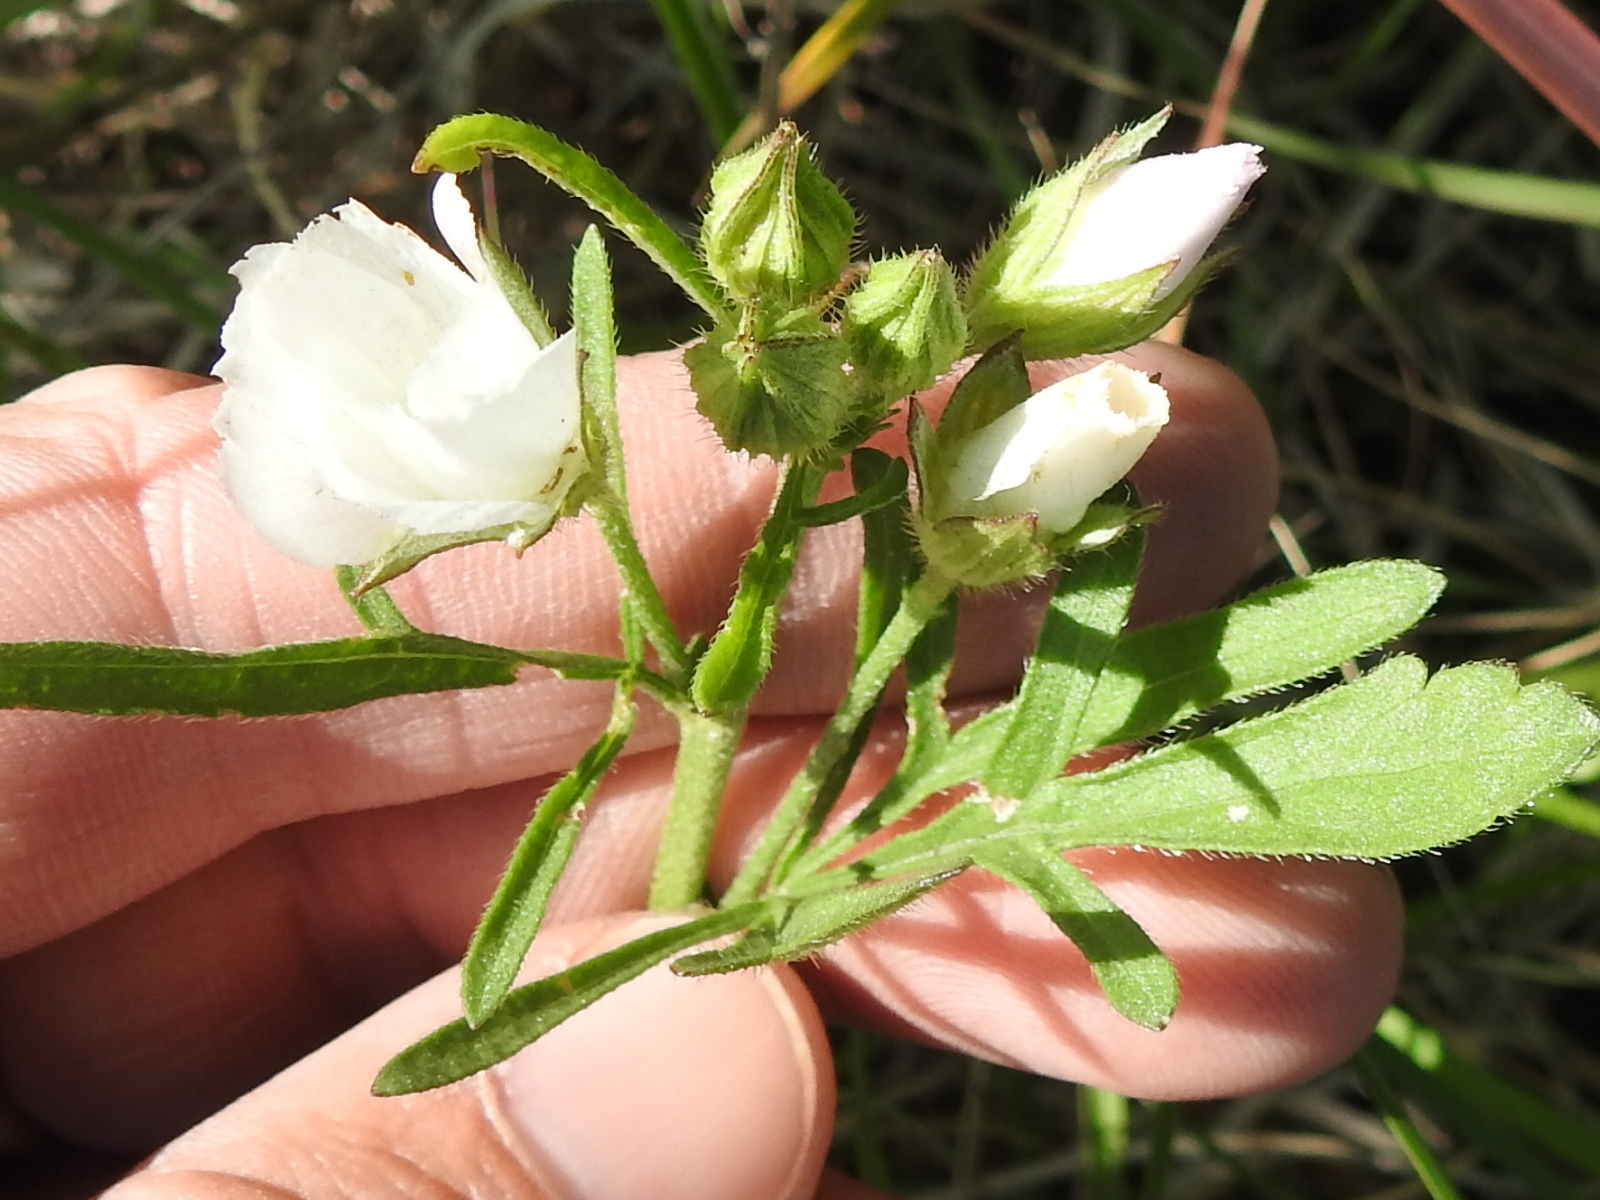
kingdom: Plantae
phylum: Tracheophyta
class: Magnoliopsida
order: Malvales
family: Malvaceae
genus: Callirhoe
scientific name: Callirhoe alcaeoides
